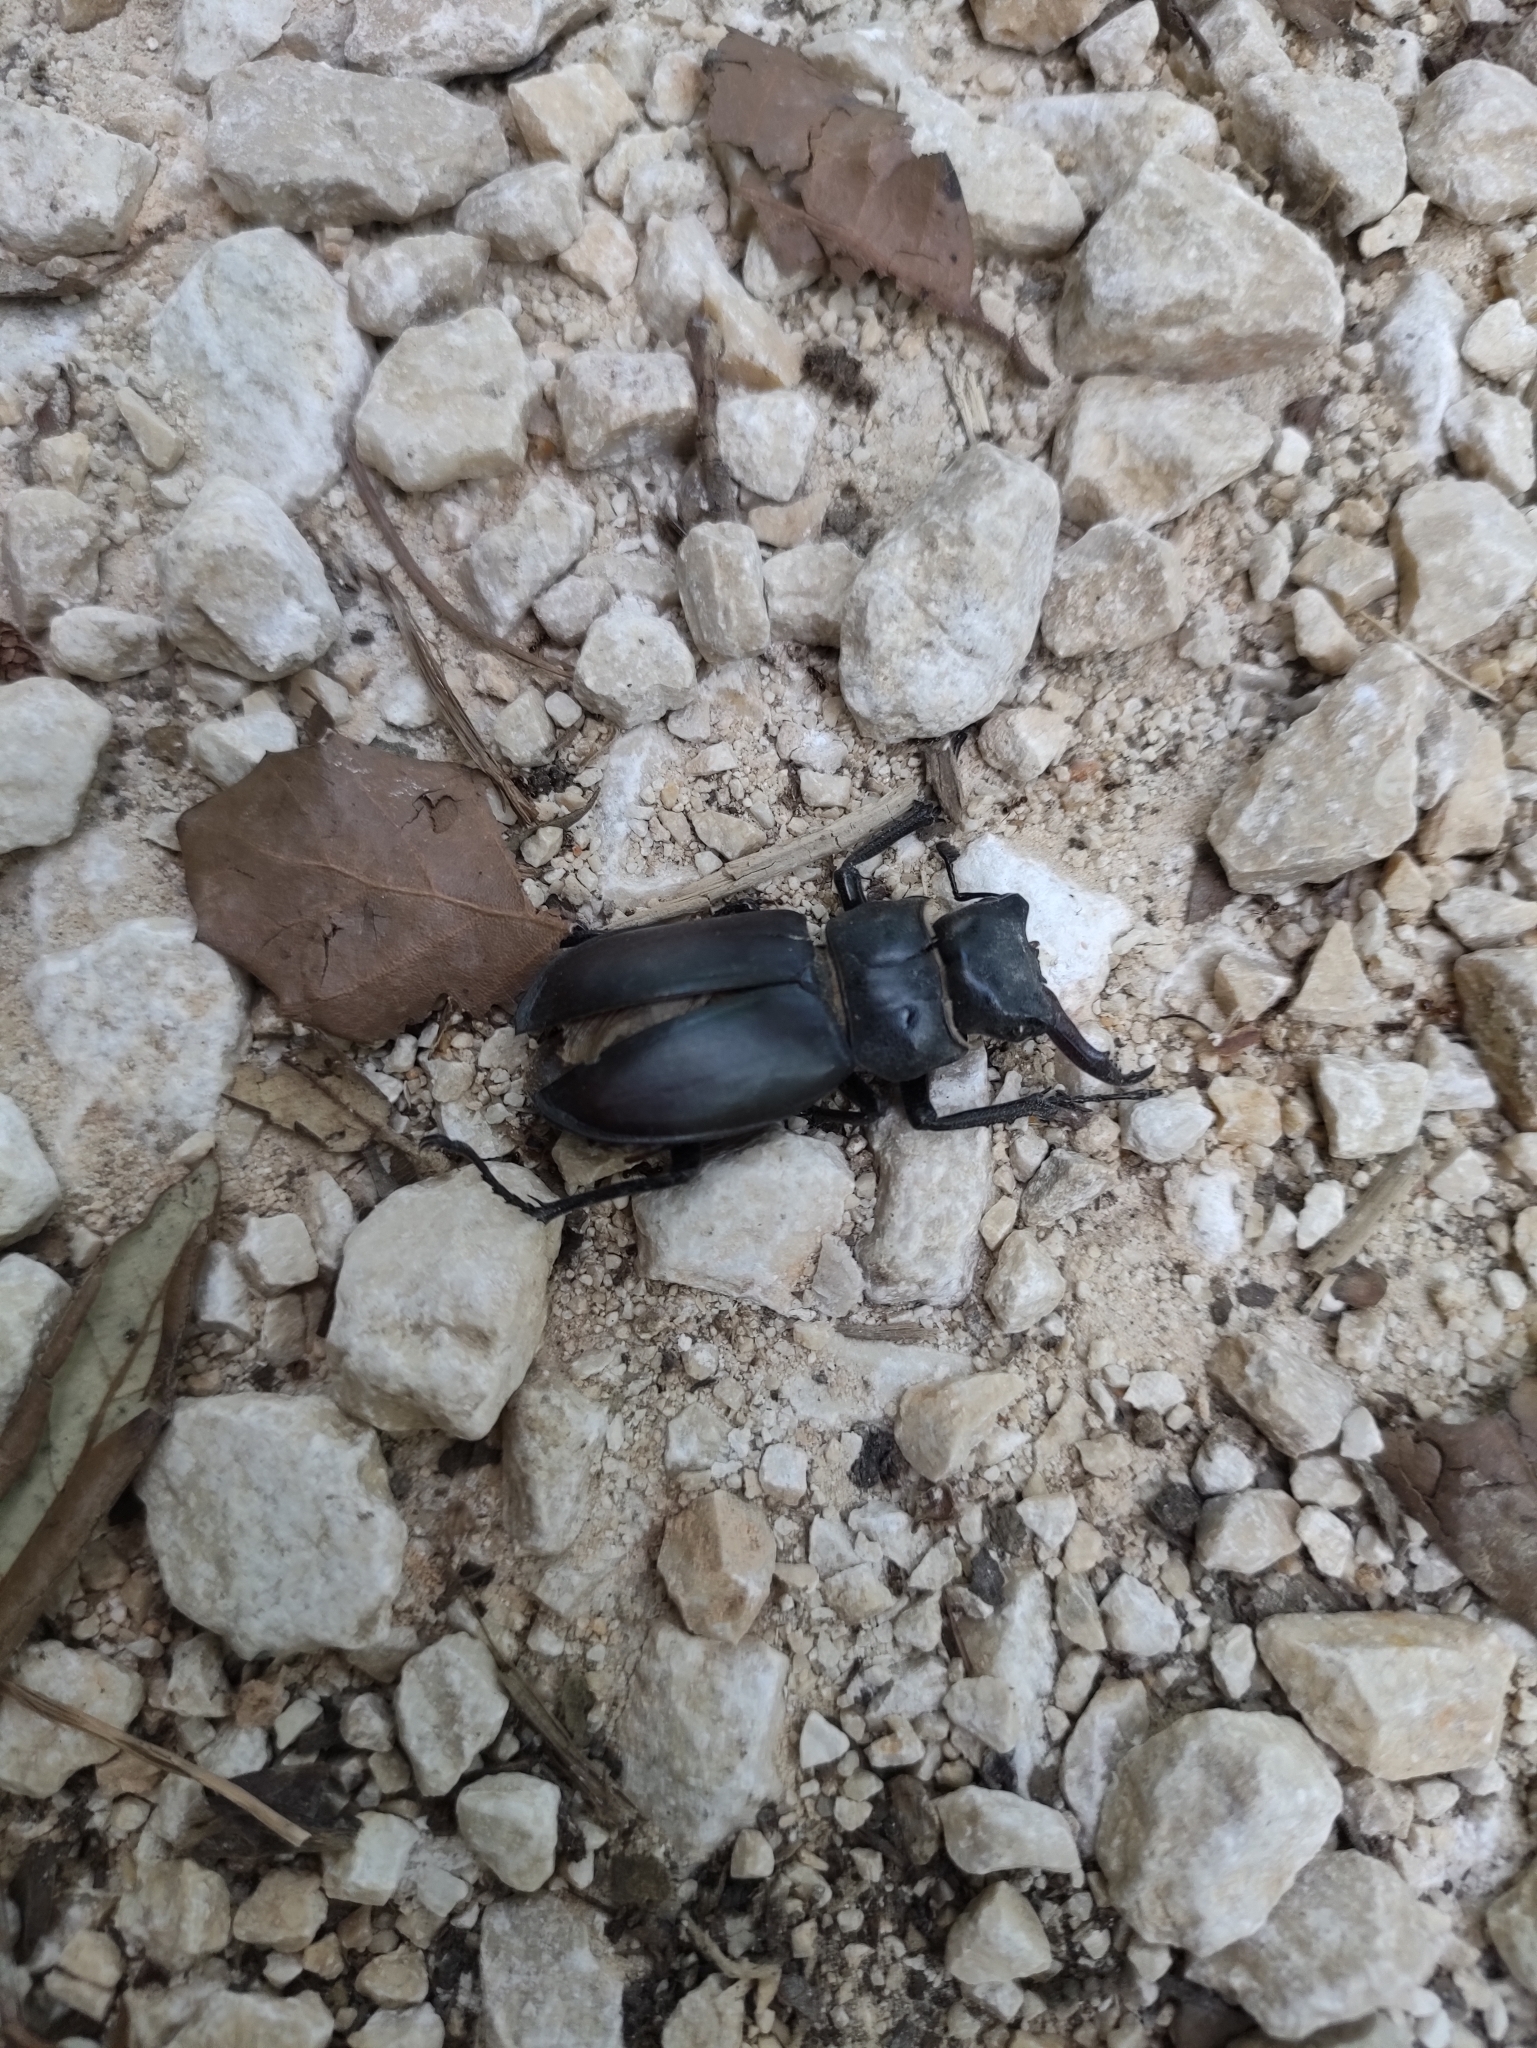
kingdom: Animalia
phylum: Arthropoda
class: Insecta
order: Coleoptera
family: Lucanidae
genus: Lucanus
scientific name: Lucanus cervus
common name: Stag beetle
